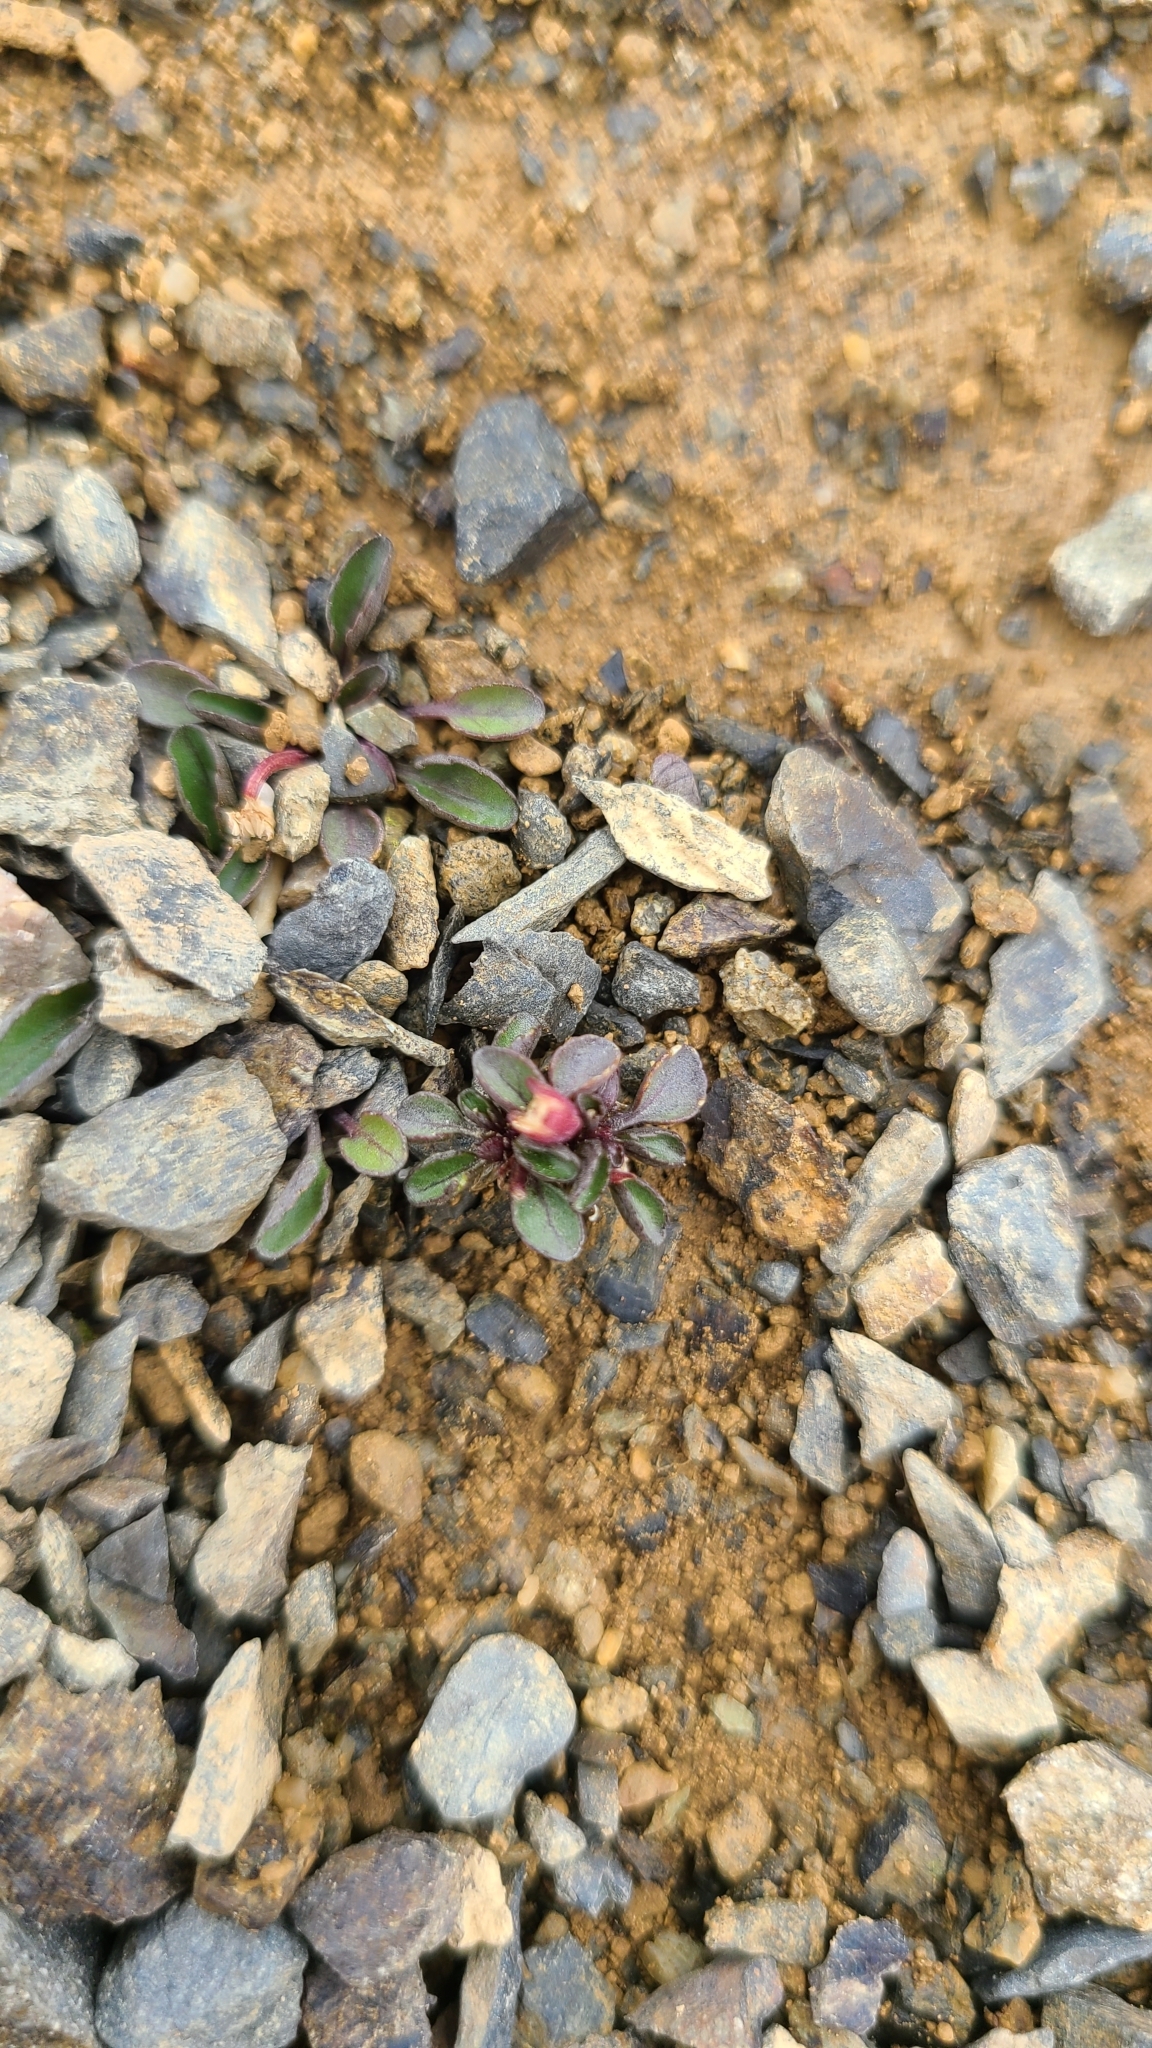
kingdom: Plantae
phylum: Tracheophyta
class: Magnoliopsida
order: Malpighiales
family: Violaceae
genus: Viola
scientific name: Viola cunninghamii
